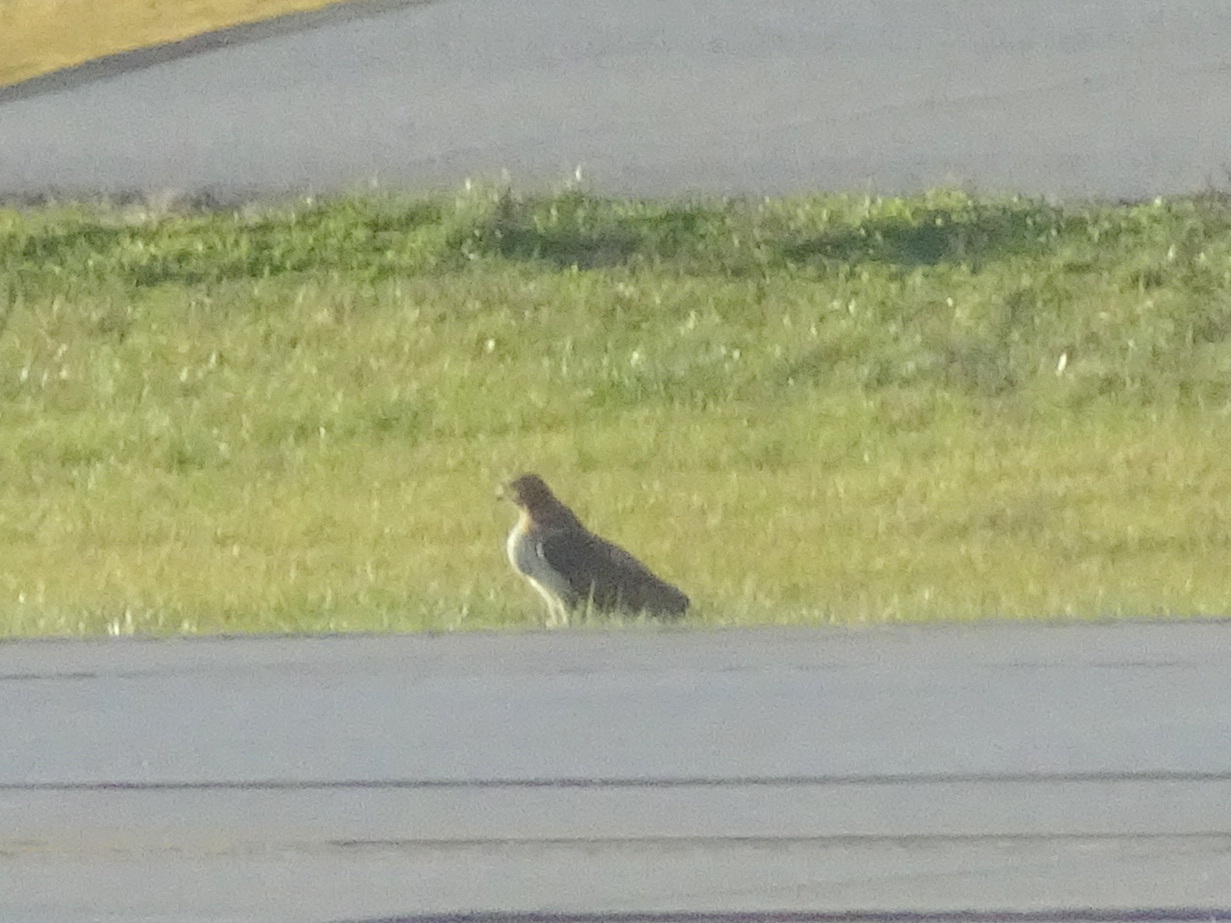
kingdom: Animalia
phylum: Chordata
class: Aves
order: Accipitriformes
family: Accipitridae
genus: Buteo
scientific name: Buteo jamaicensis
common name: Red-tailed hawk
